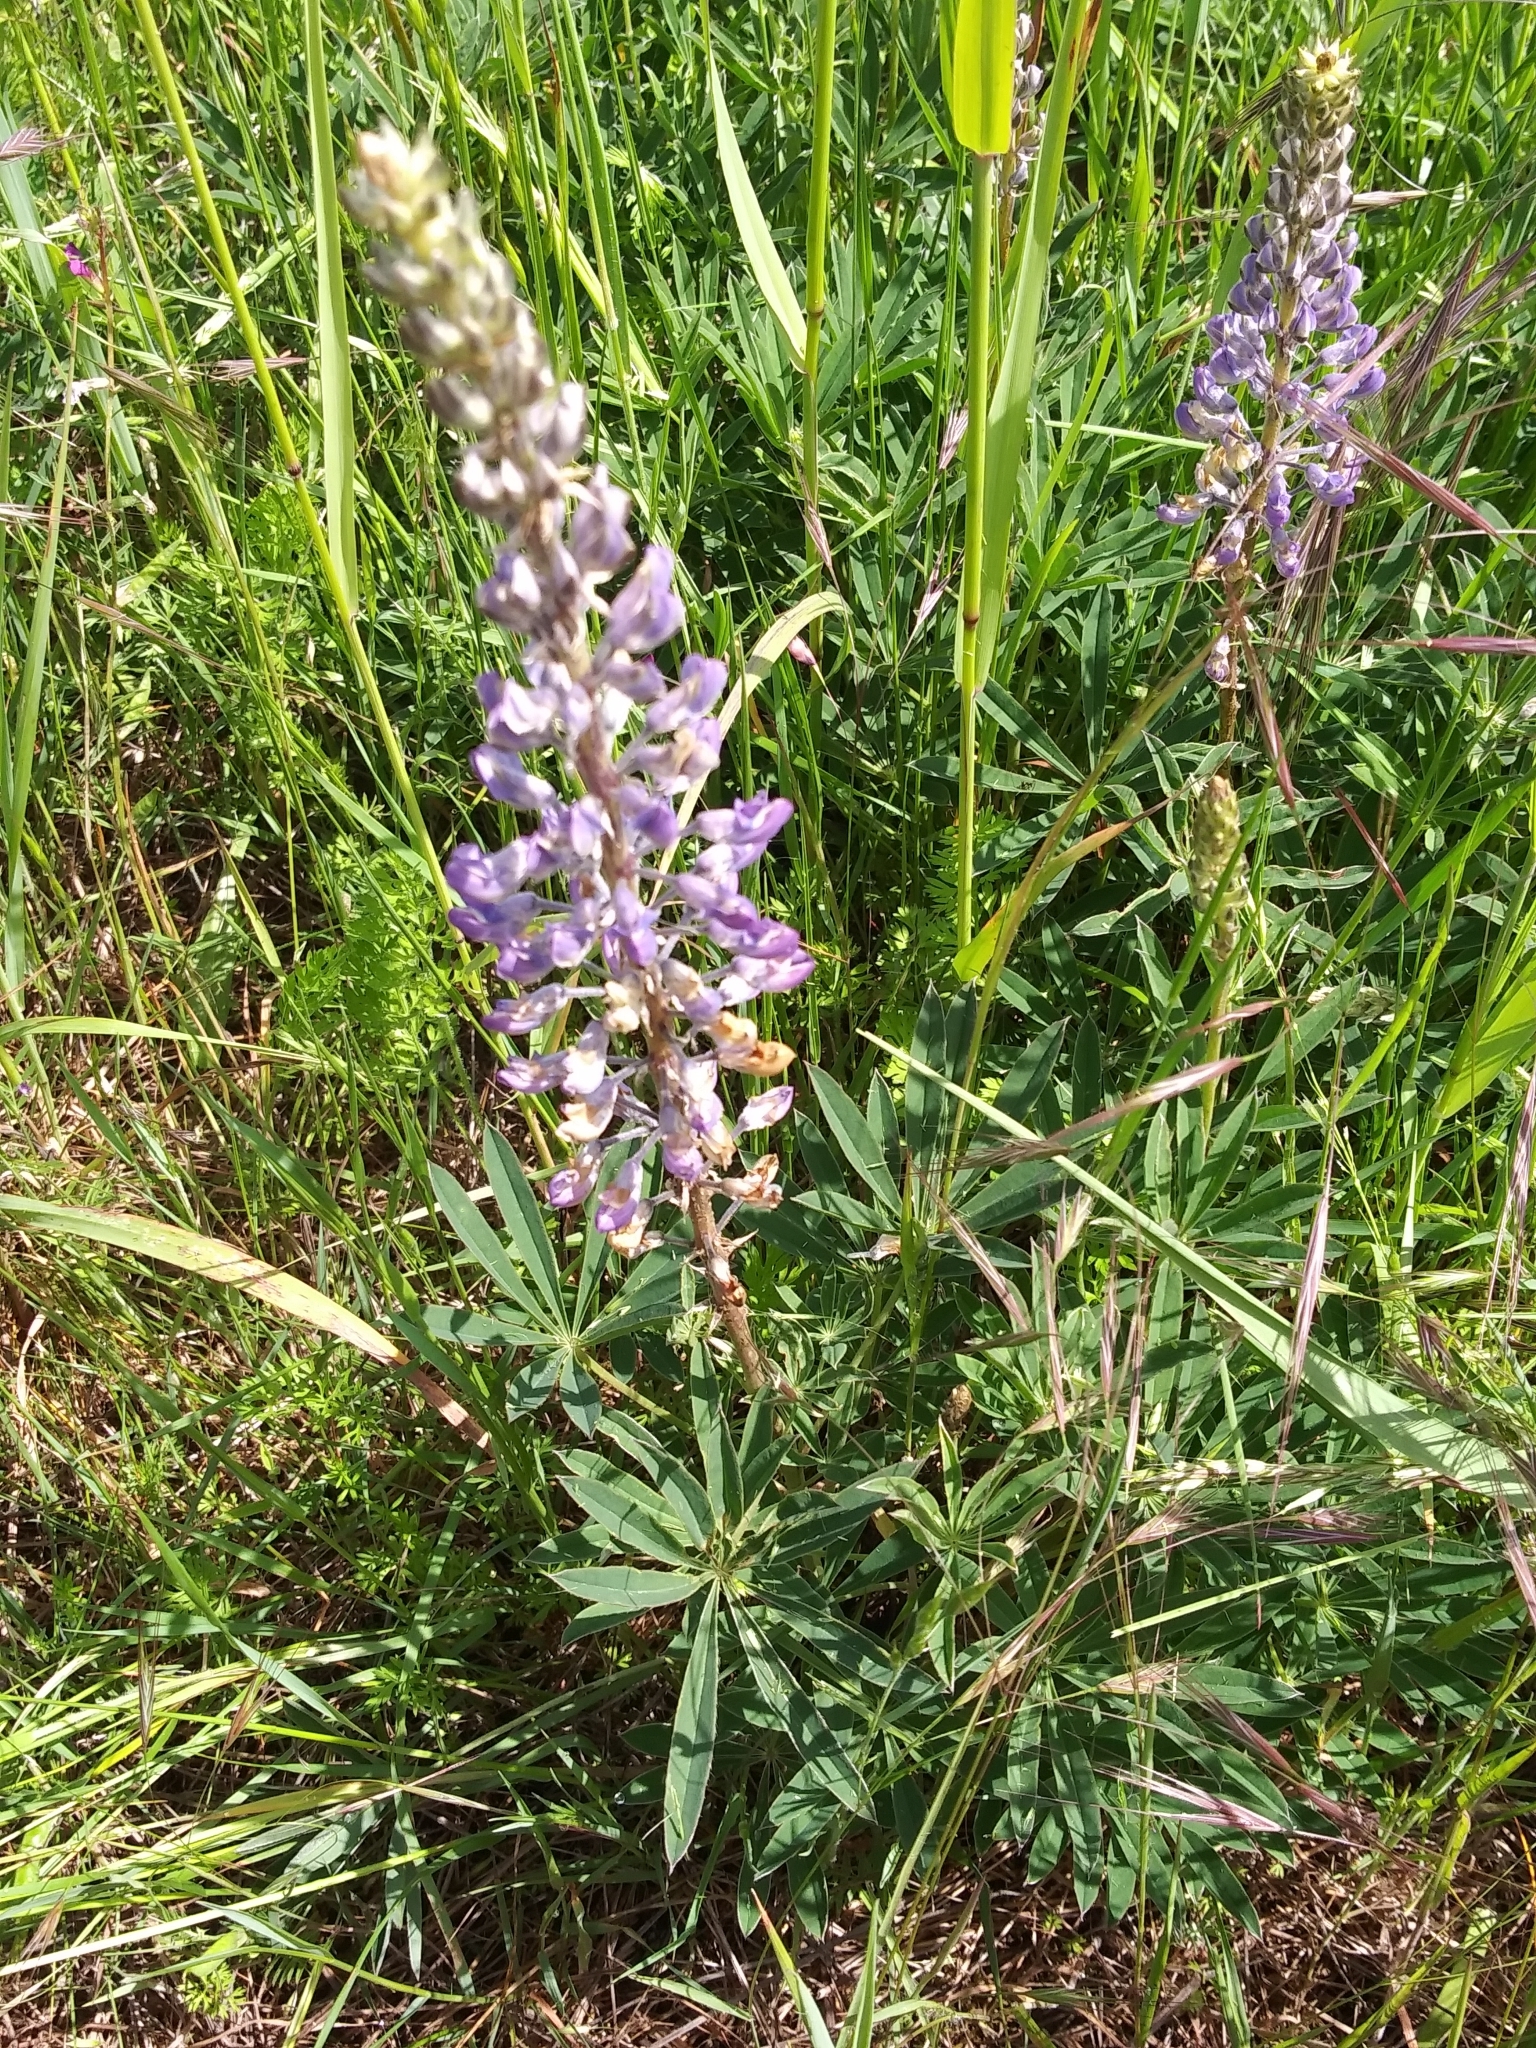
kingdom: Plantae
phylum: Tracheophyta
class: Magnoliopsida
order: Fabales
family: Fabaceae
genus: Lupinus
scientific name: Lupinus oreganus
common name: Kincaid's lupine
